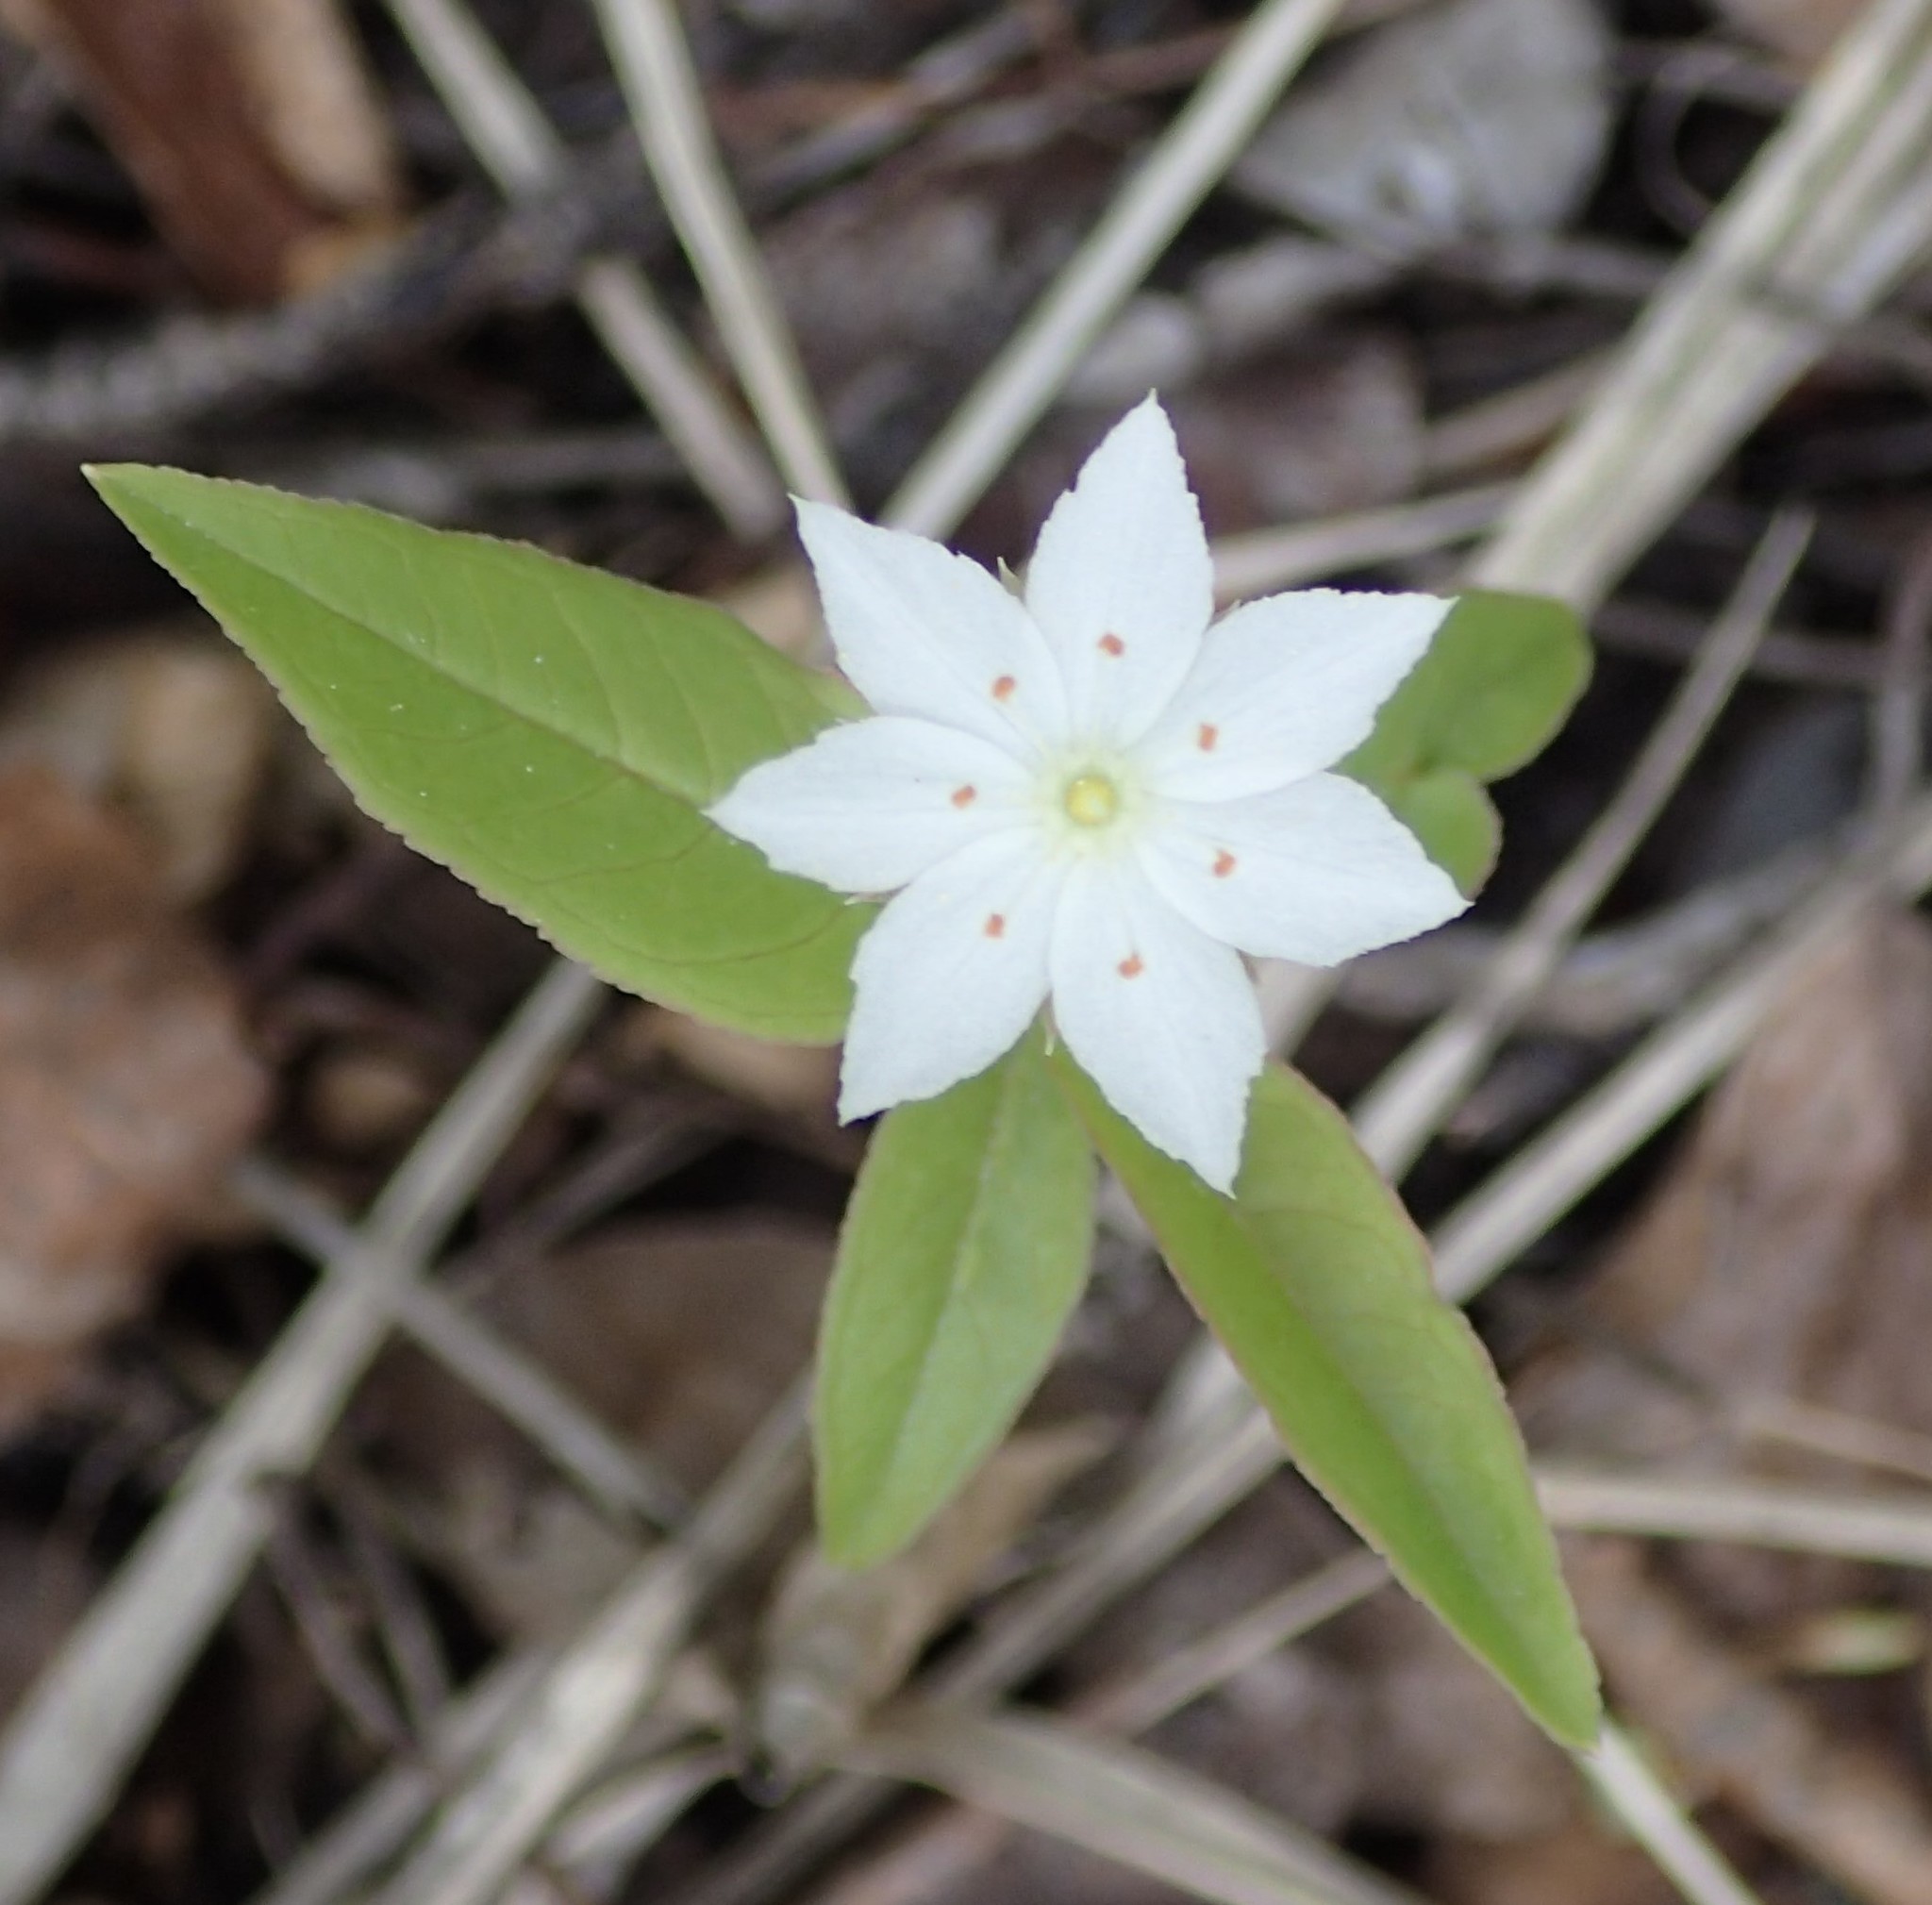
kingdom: Plantae
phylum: Tracheophyta
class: Magnoliopsida
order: Ericales
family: Primulaceae
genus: Lysimachia
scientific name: Lysimachia borealis
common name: American starflower
